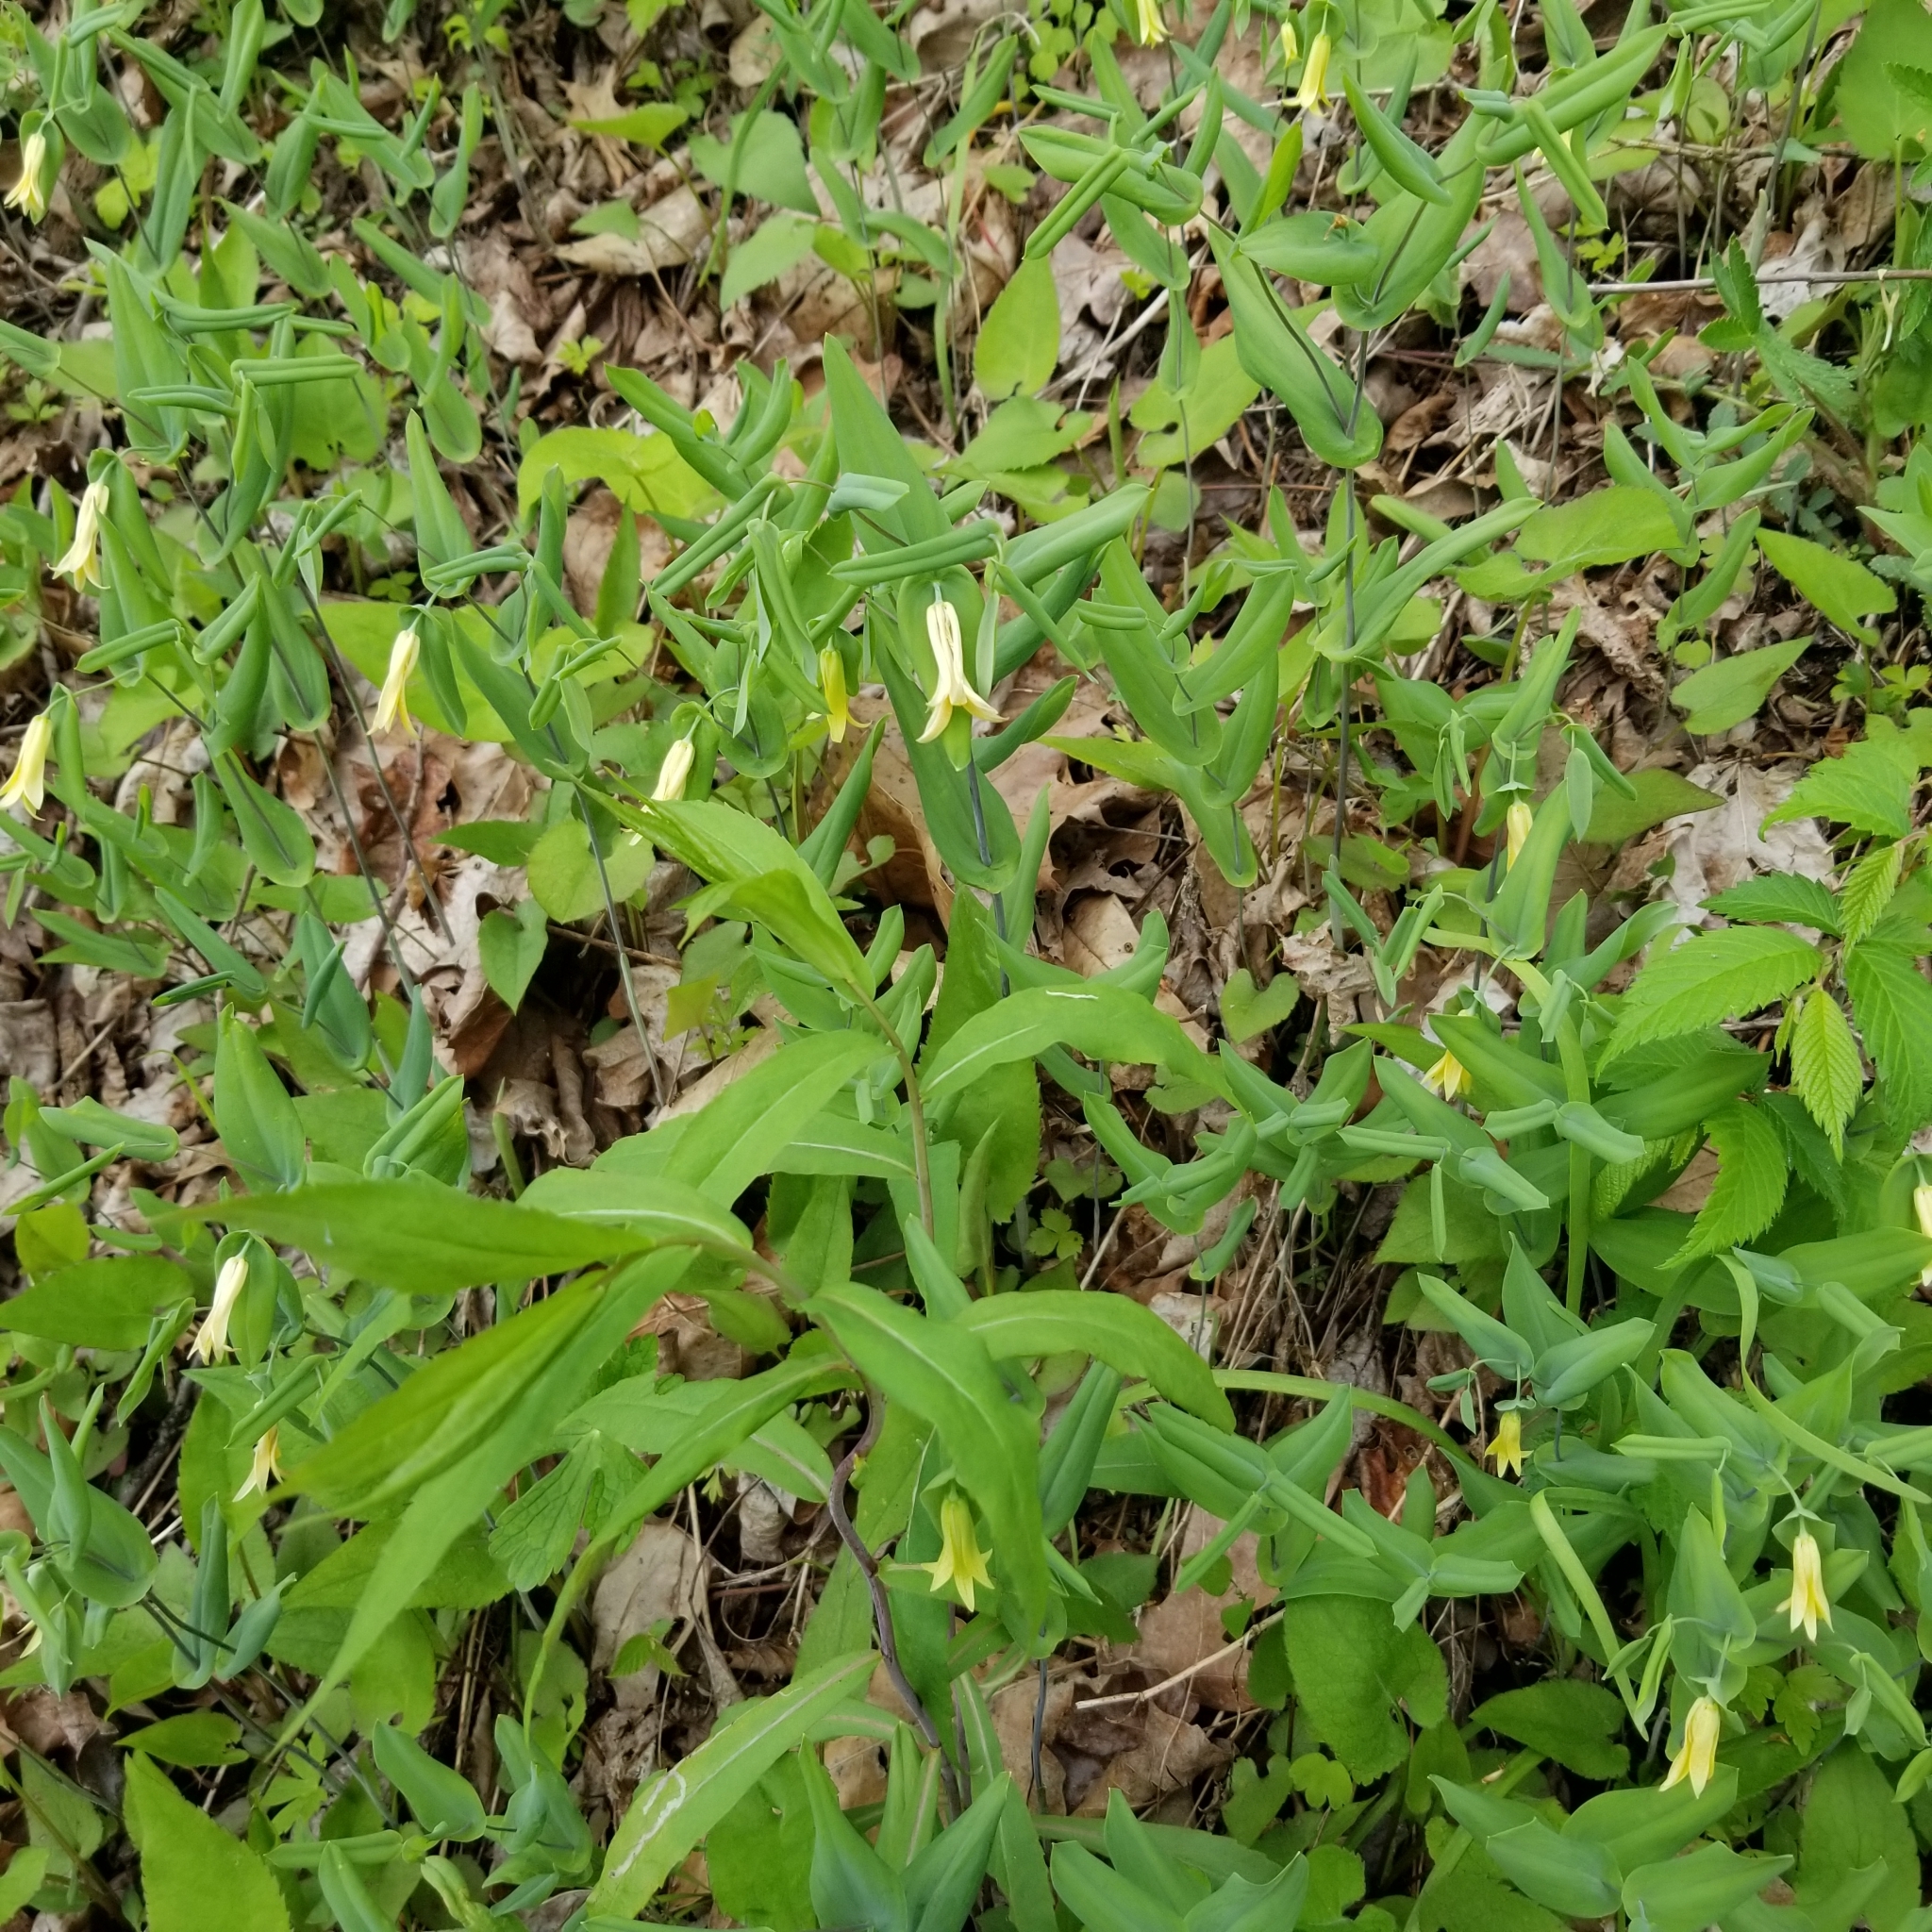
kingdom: Plantae
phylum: Tracheophyta
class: Liliopsida
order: Liliales
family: Colchicaceae
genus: Uvularia
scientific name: Uvularia perfoliata
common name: Perfoliate bellwort
